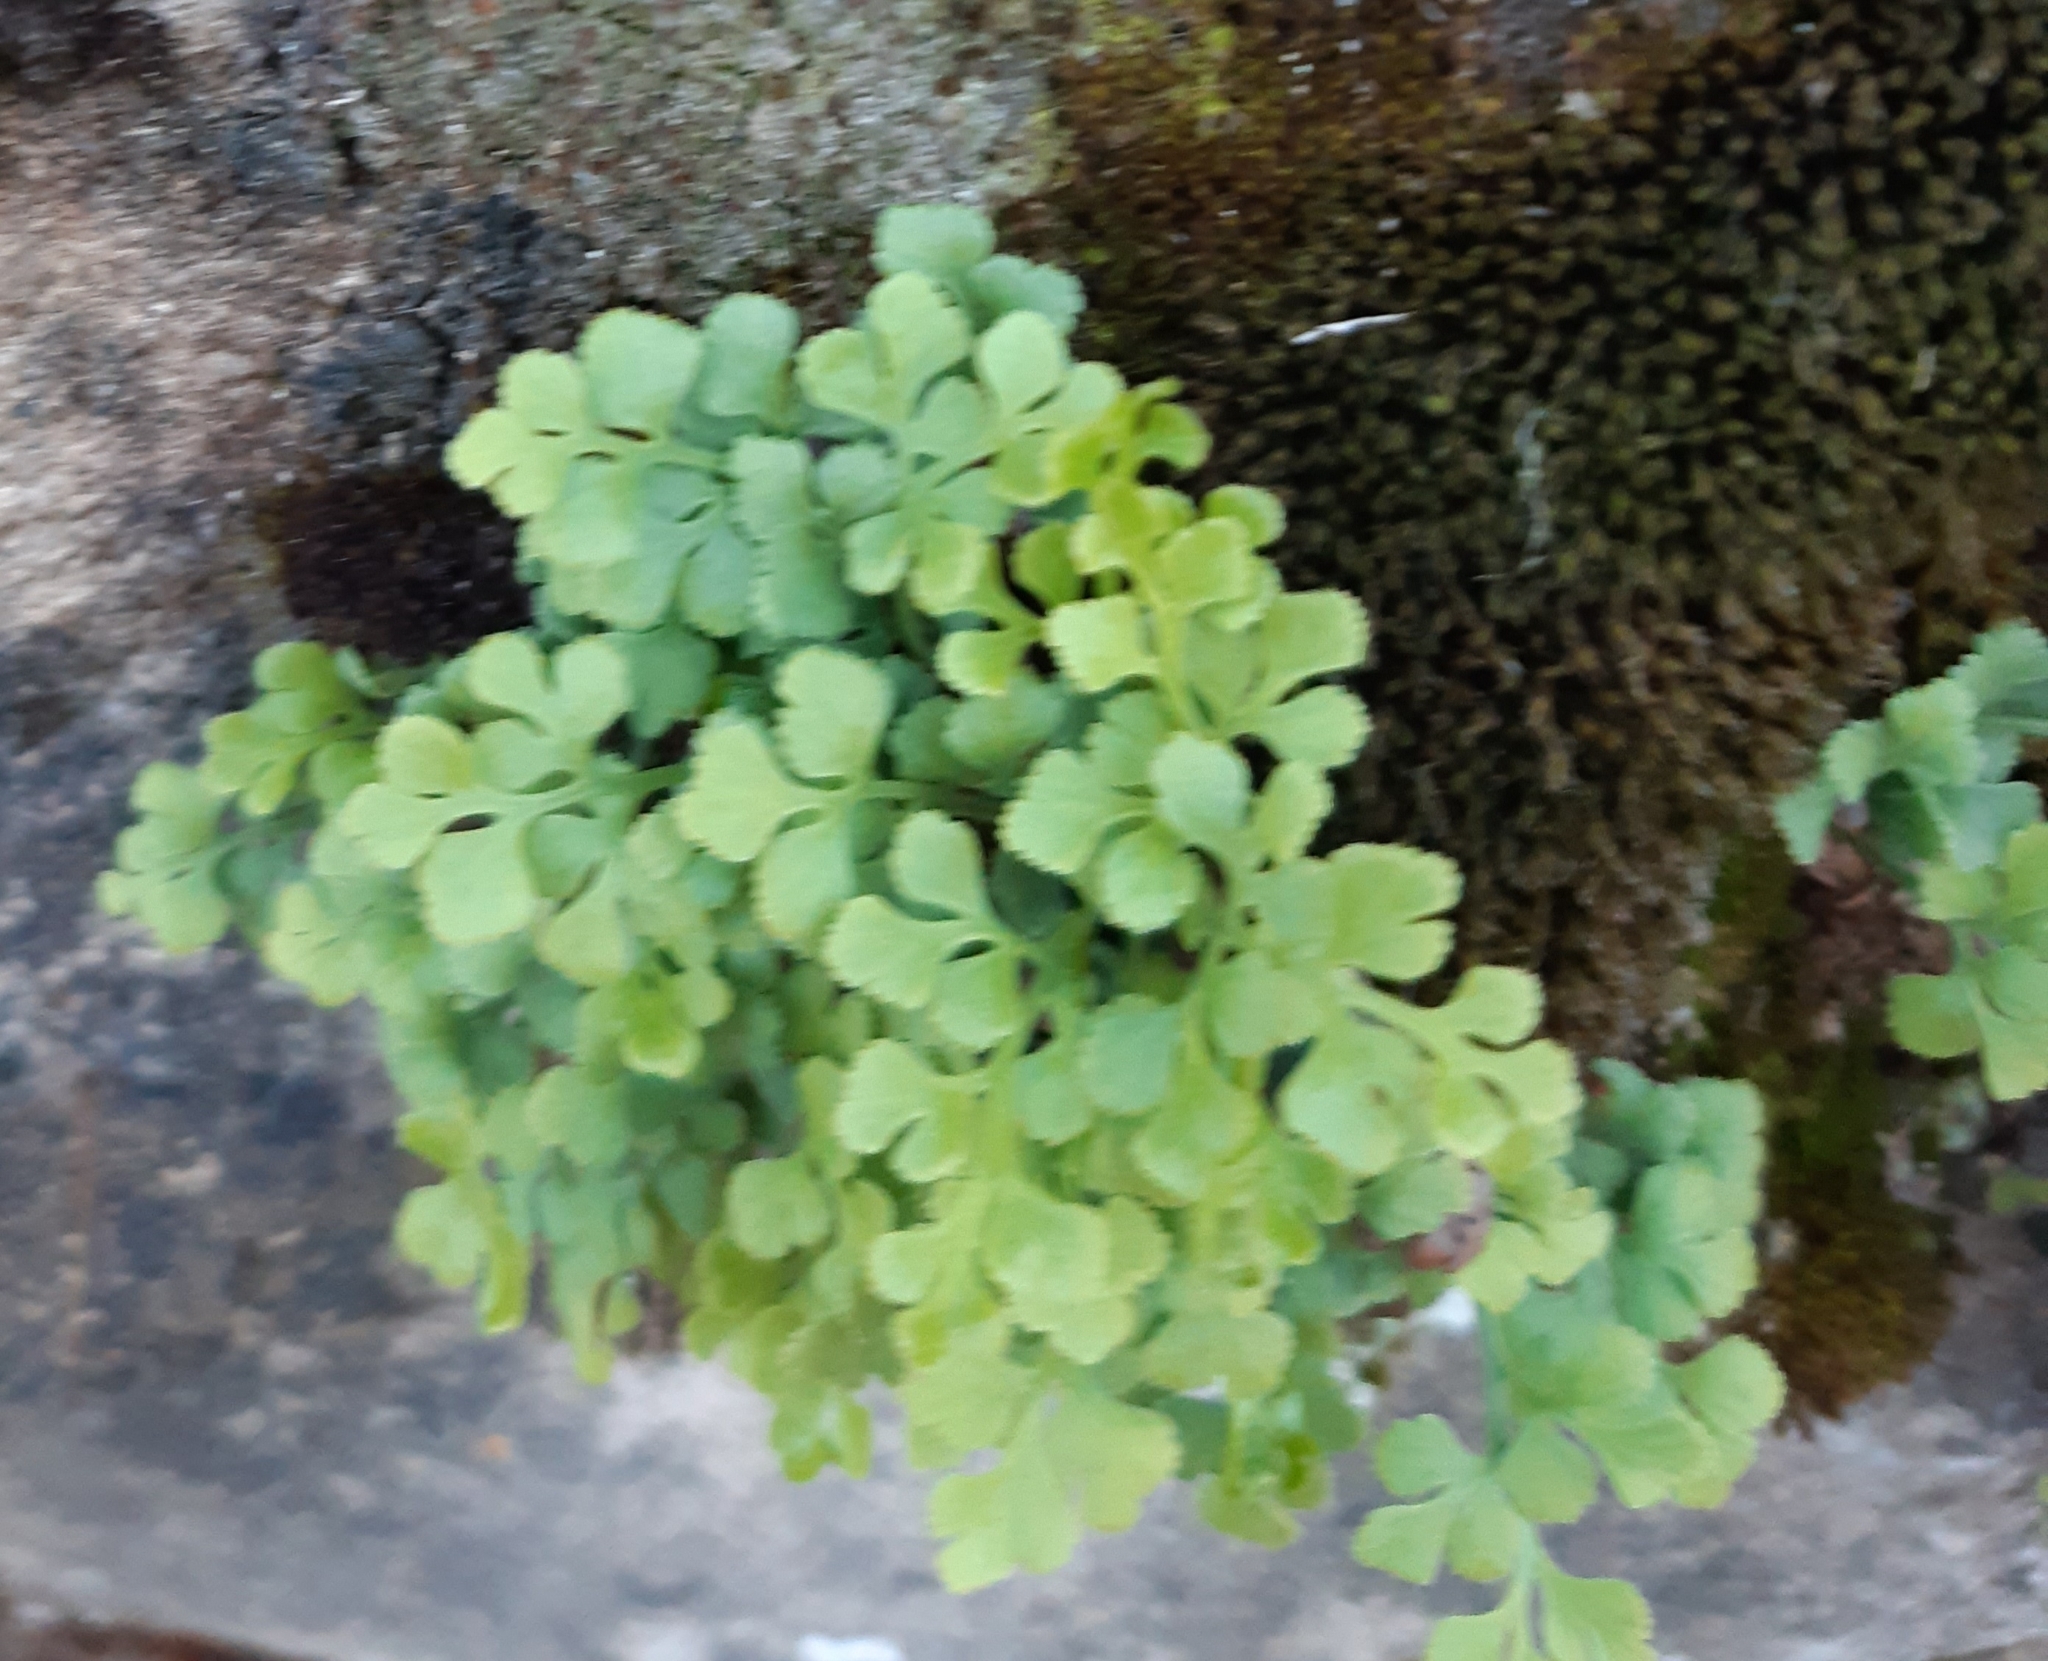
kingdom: Plantae
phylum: Tracheophyta
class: Polypodiopsida
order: Polypodiales
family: Aspleniaceae
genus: Asplenium
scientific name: Asplenium ruta-muraria
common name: Wall-rue
